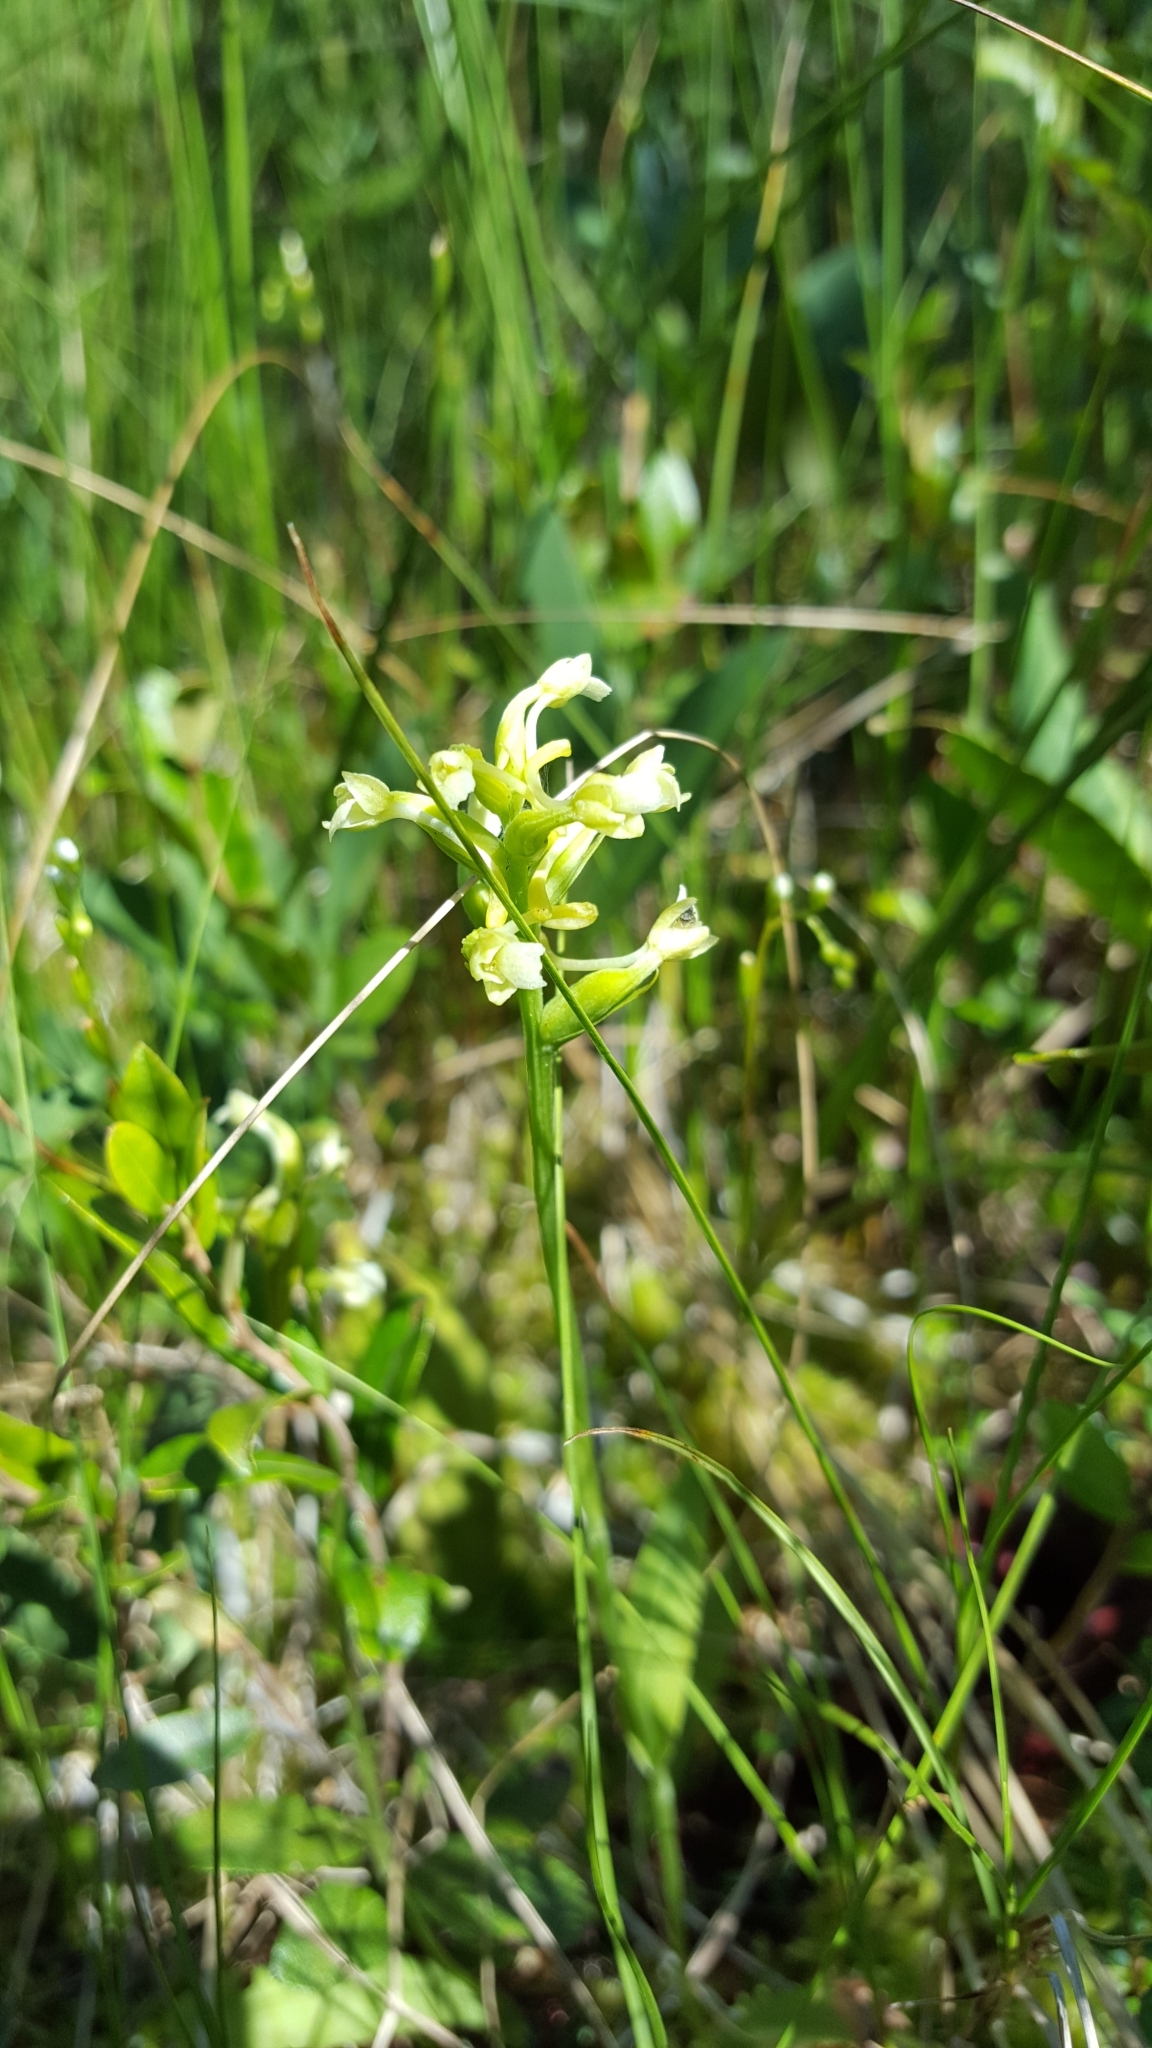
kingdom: Plantae
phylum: Tracheophyta
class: Liliopsida
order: Asparagales
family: Orchidaceae
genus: Platanthera
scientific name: Platanthera clavellata
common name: Club-spur orchid
